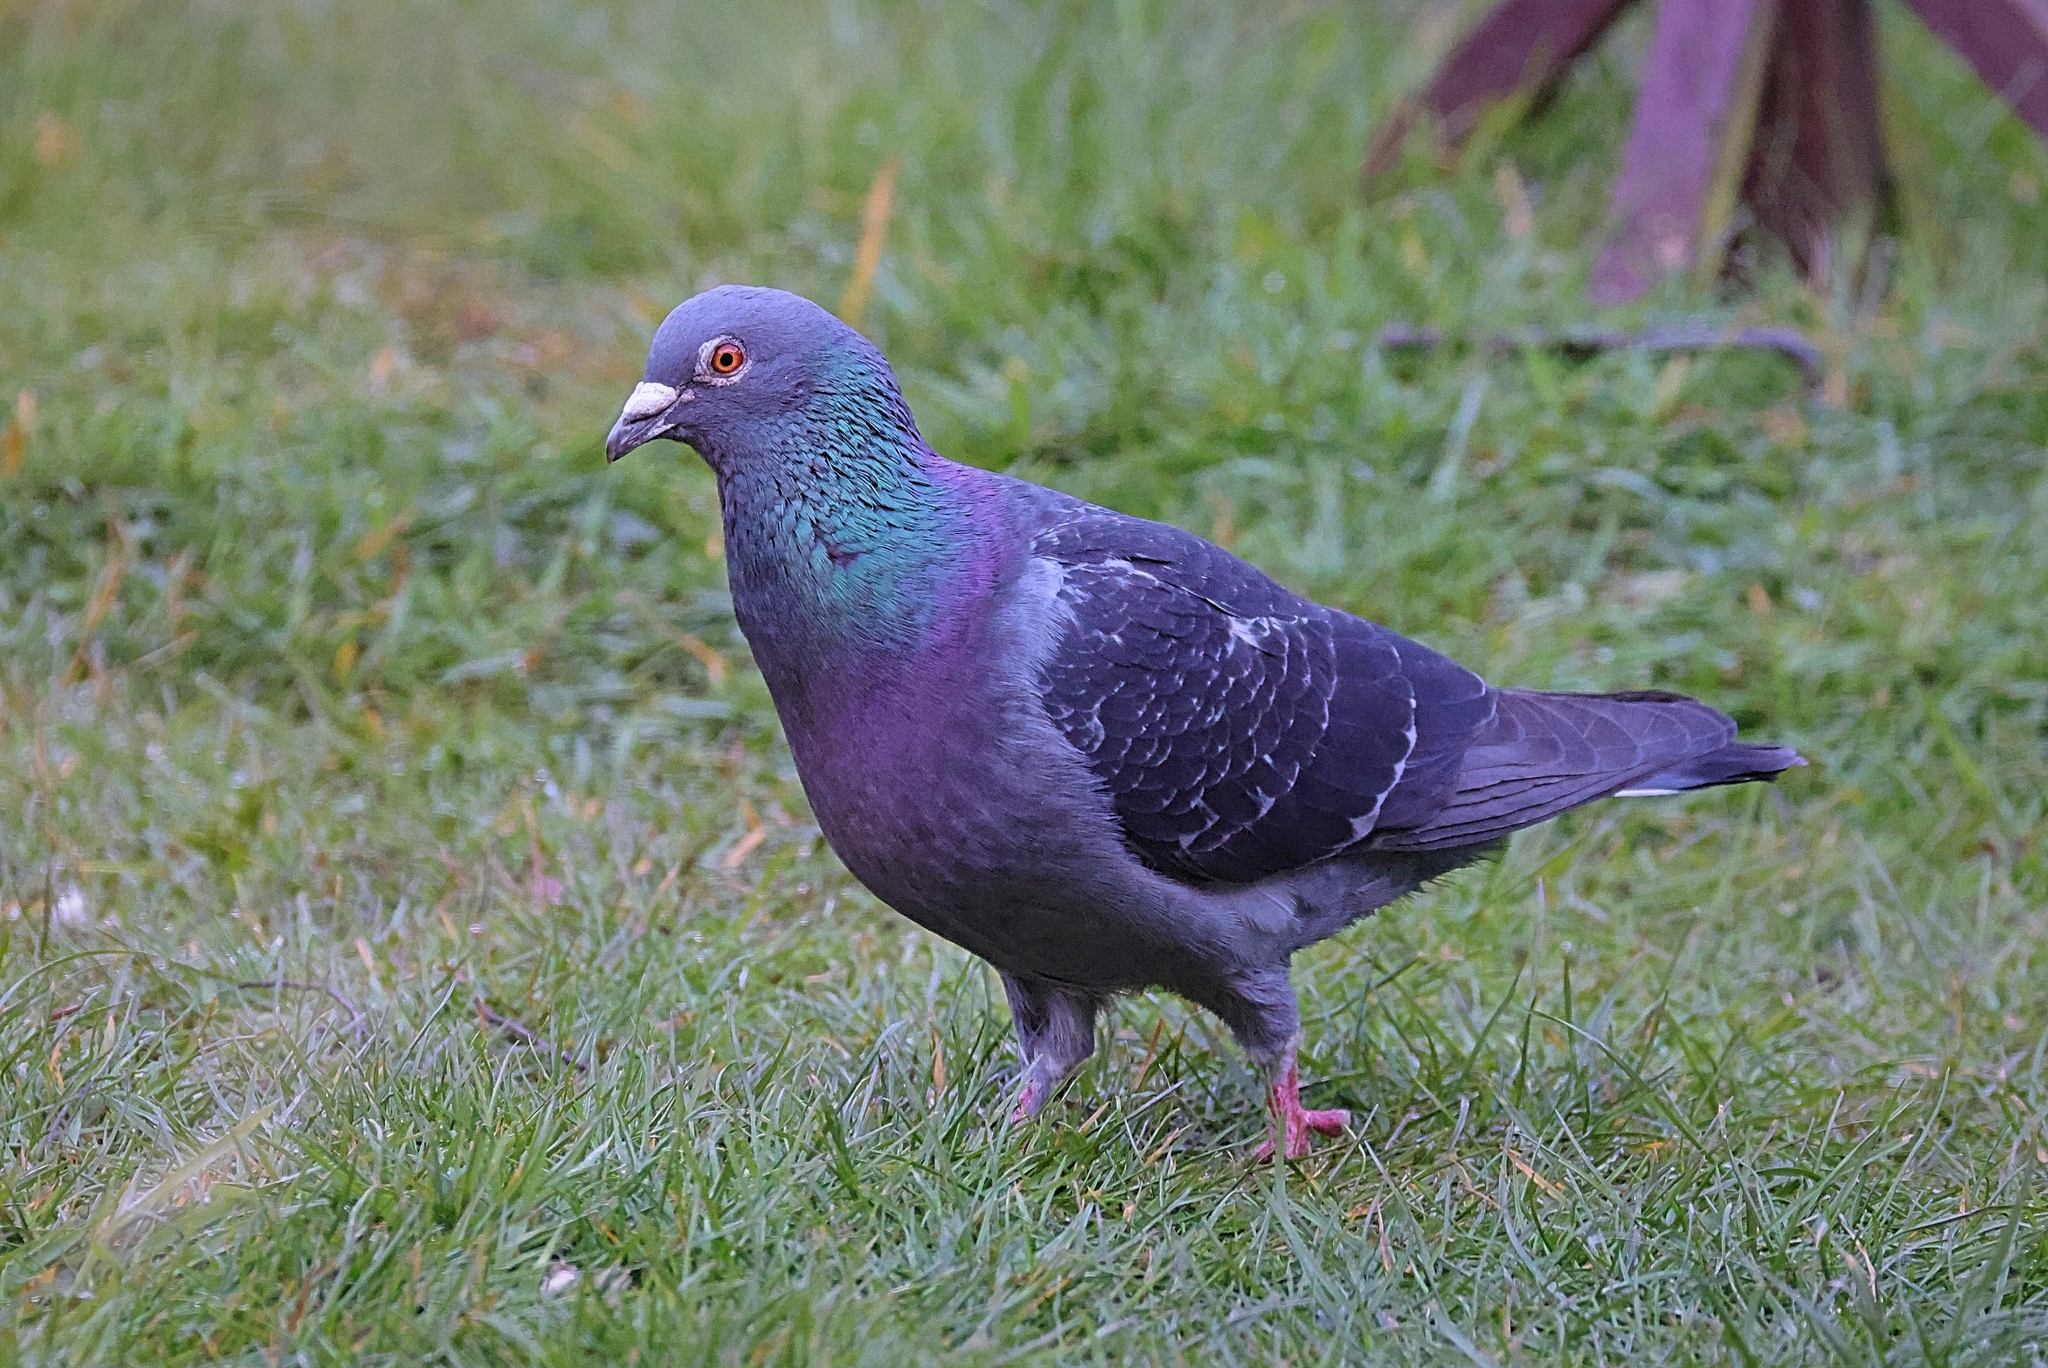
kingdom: Animalia
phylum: Chordata
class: Aves
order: Columbiformes
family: Columbidae
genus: Columba
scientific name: Columba livia
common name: Rock pigeon
